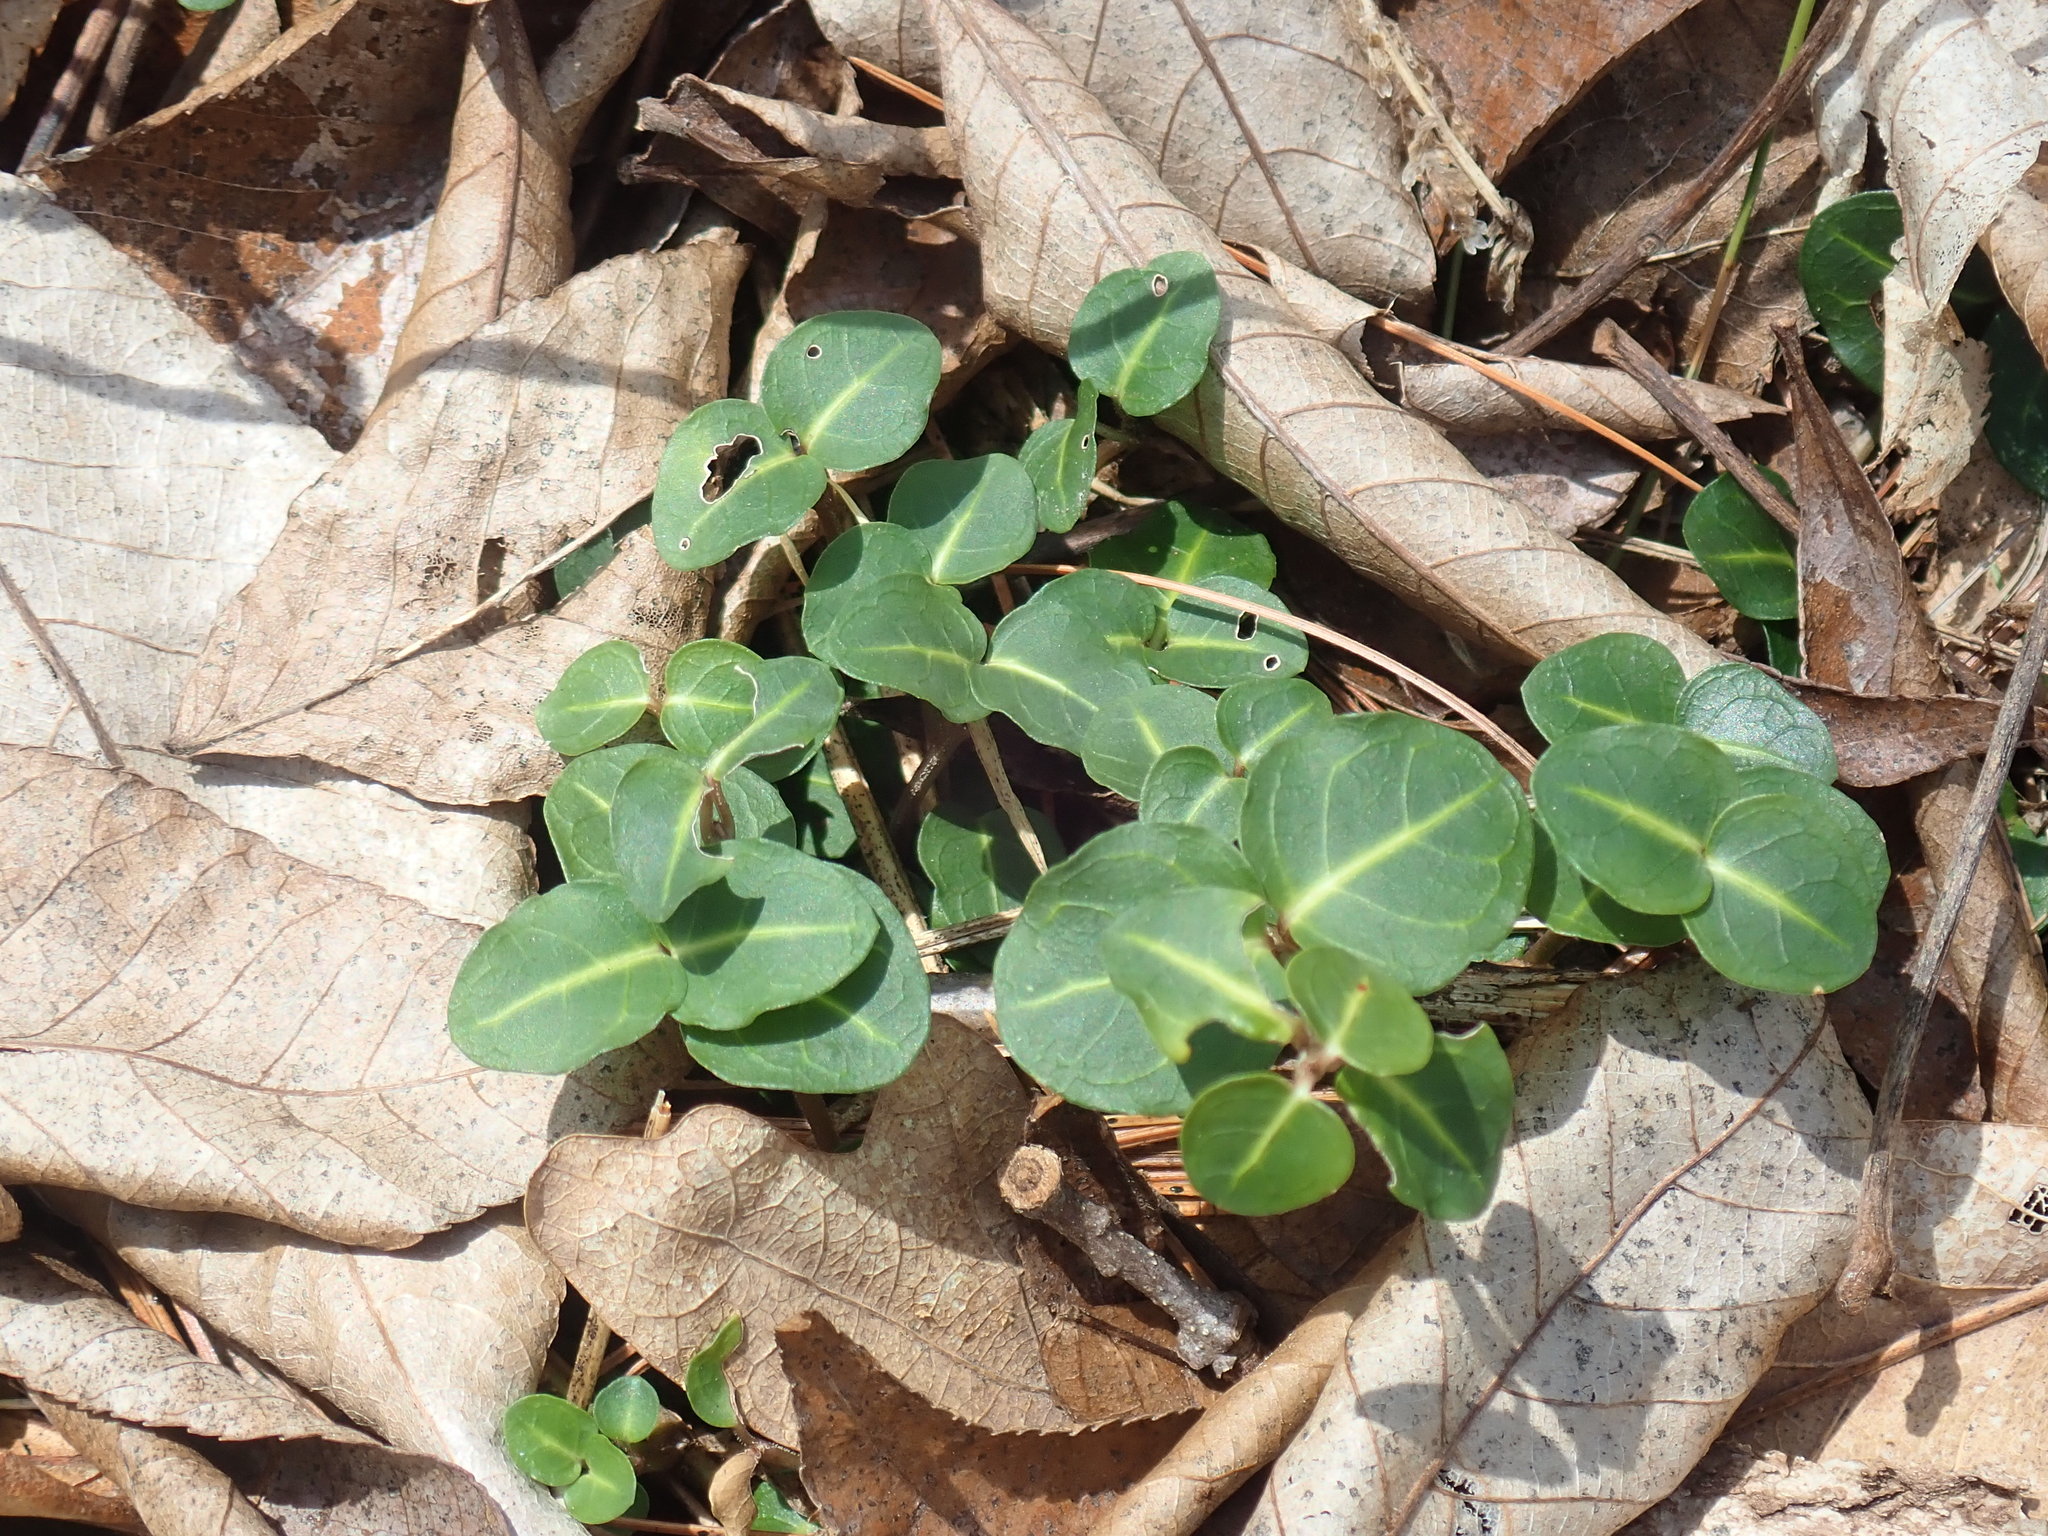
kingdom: Plantae
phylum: Tracheophyta
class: Magnoliopsida
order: Gentianales
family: Rubiaceae
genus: Mitchella
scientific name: Mitchella repens
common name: Partridge-berry
